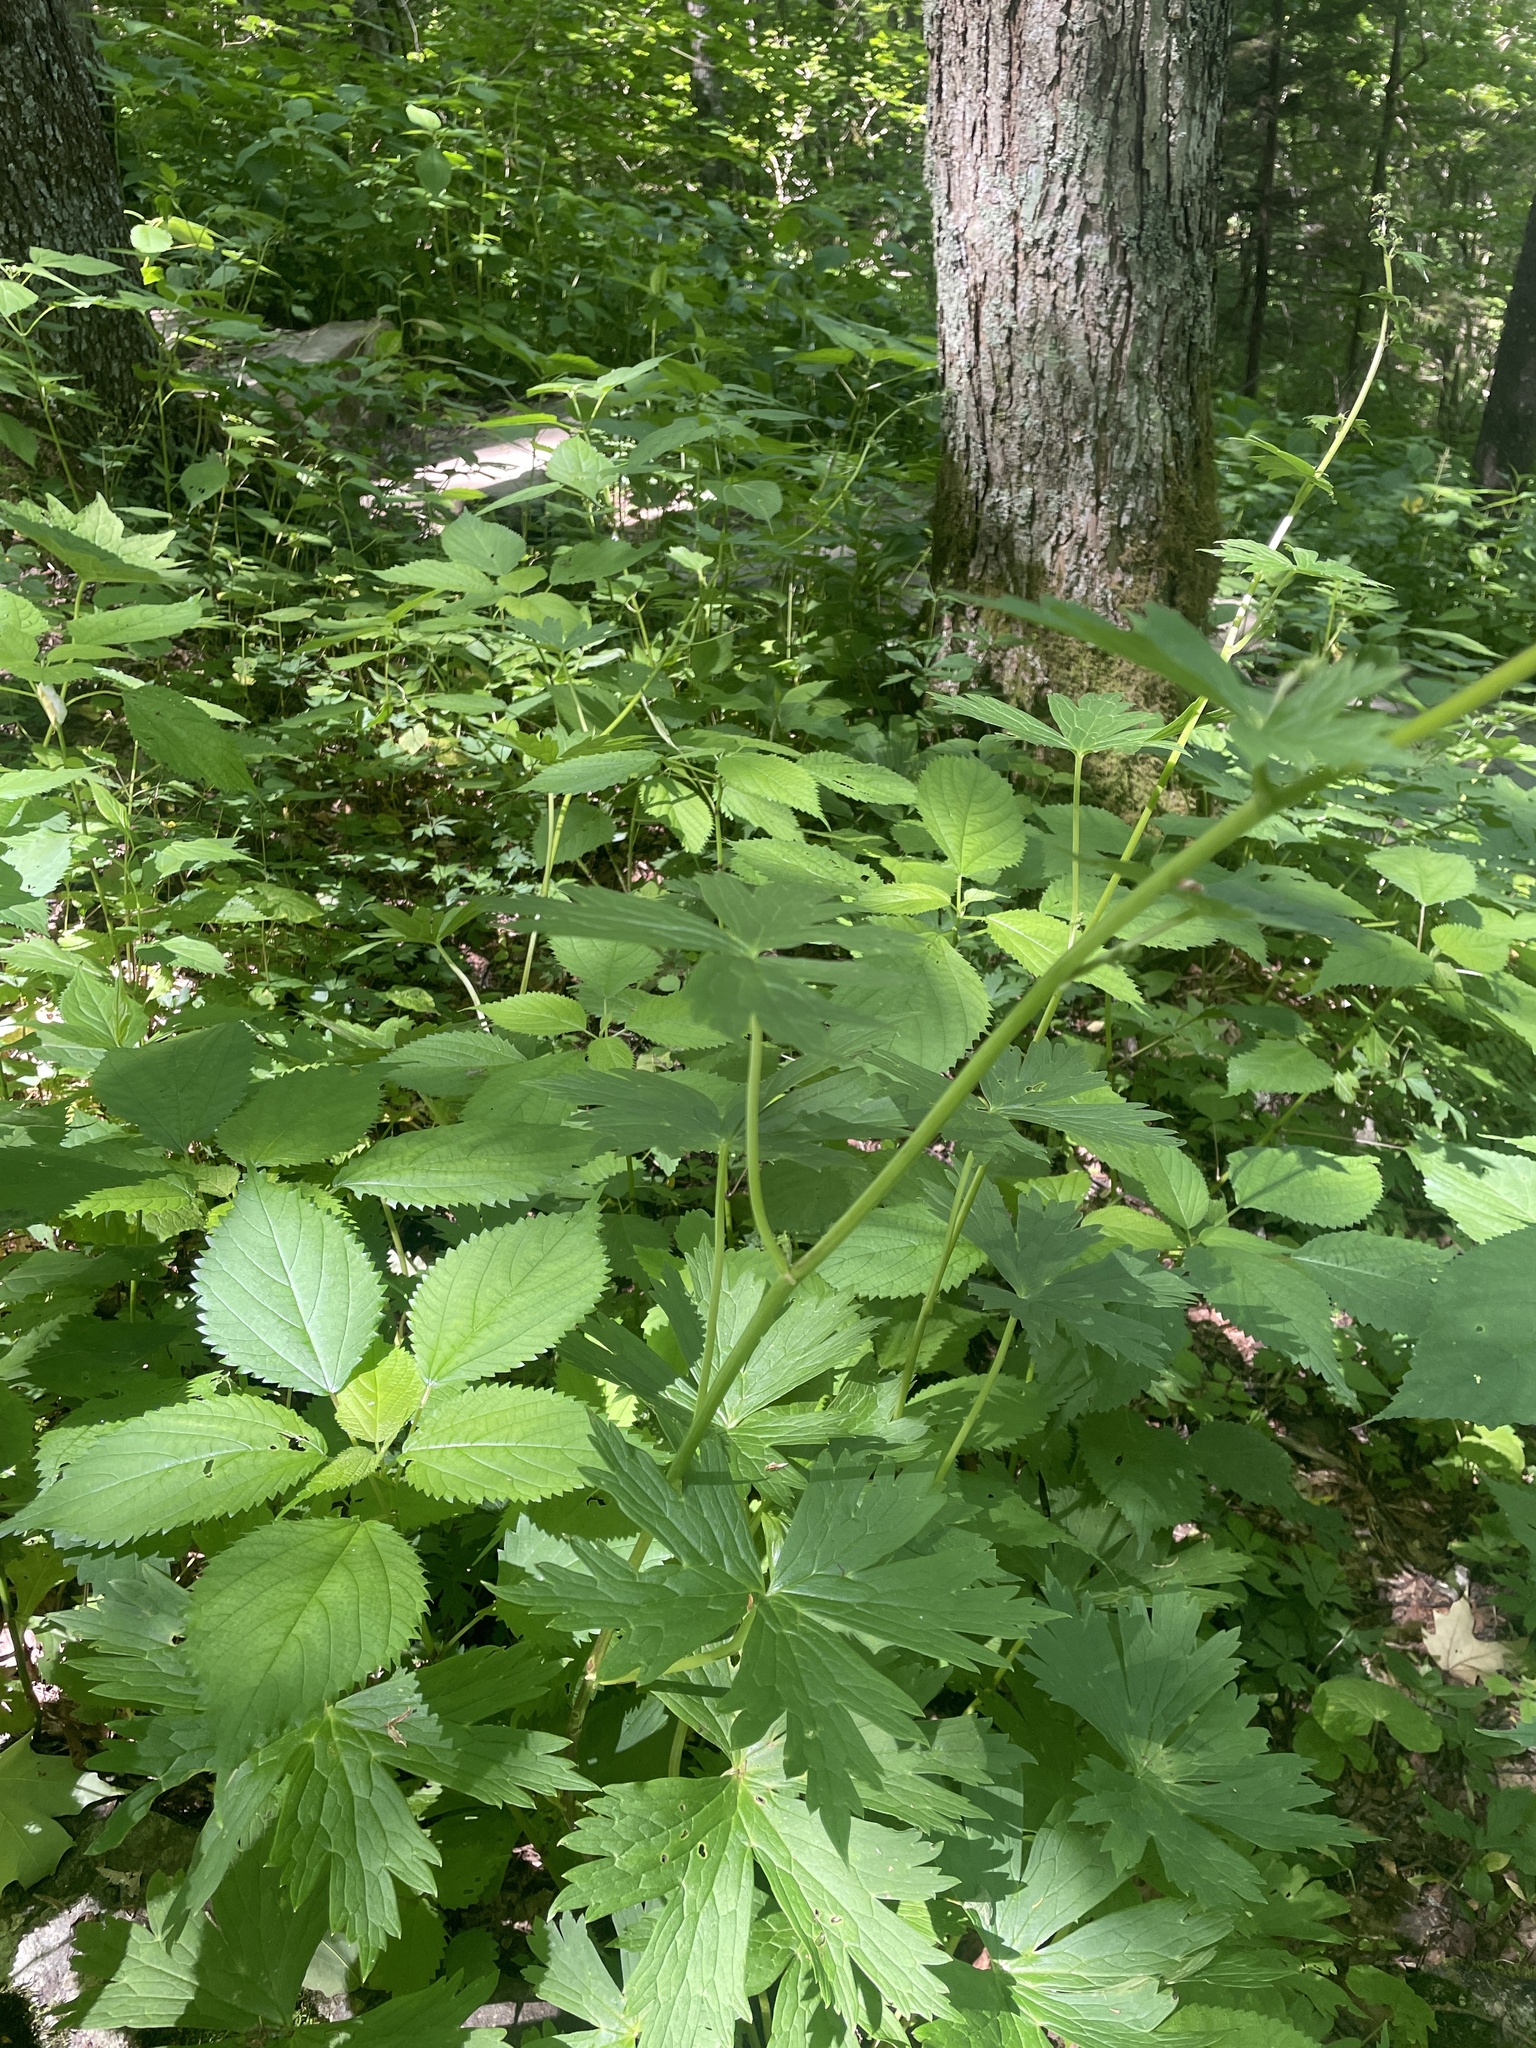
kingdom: Plantae
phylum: Tracheophyta
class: Magnoliopsida
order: Ranunculales
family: Ranunculaceae
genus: Trautvetteria
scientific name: Trautvetteria carolinensis
